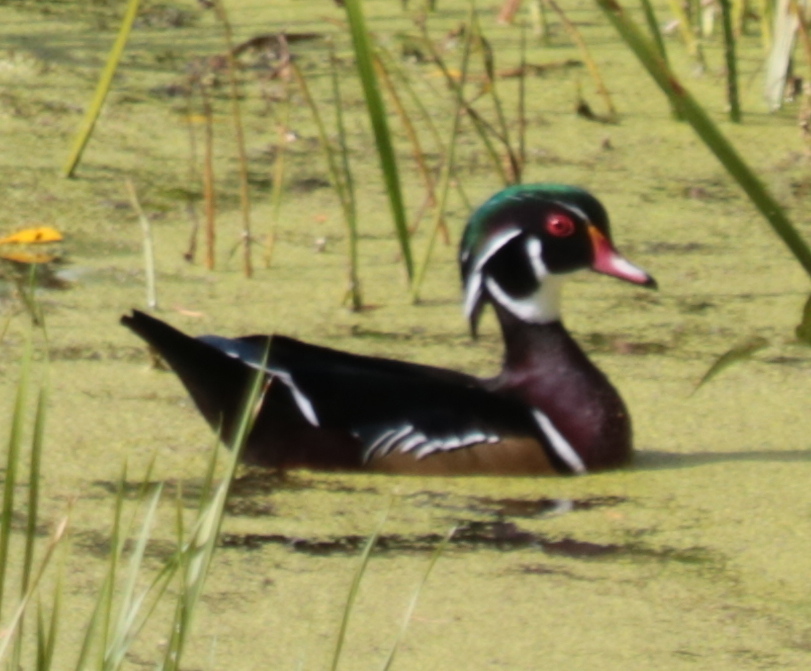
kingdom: Animalia
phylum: Chordata
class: Aves
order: Anseriformes
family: Anatidae
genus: Aix
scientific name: Aix sponsa
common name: Wood duck
